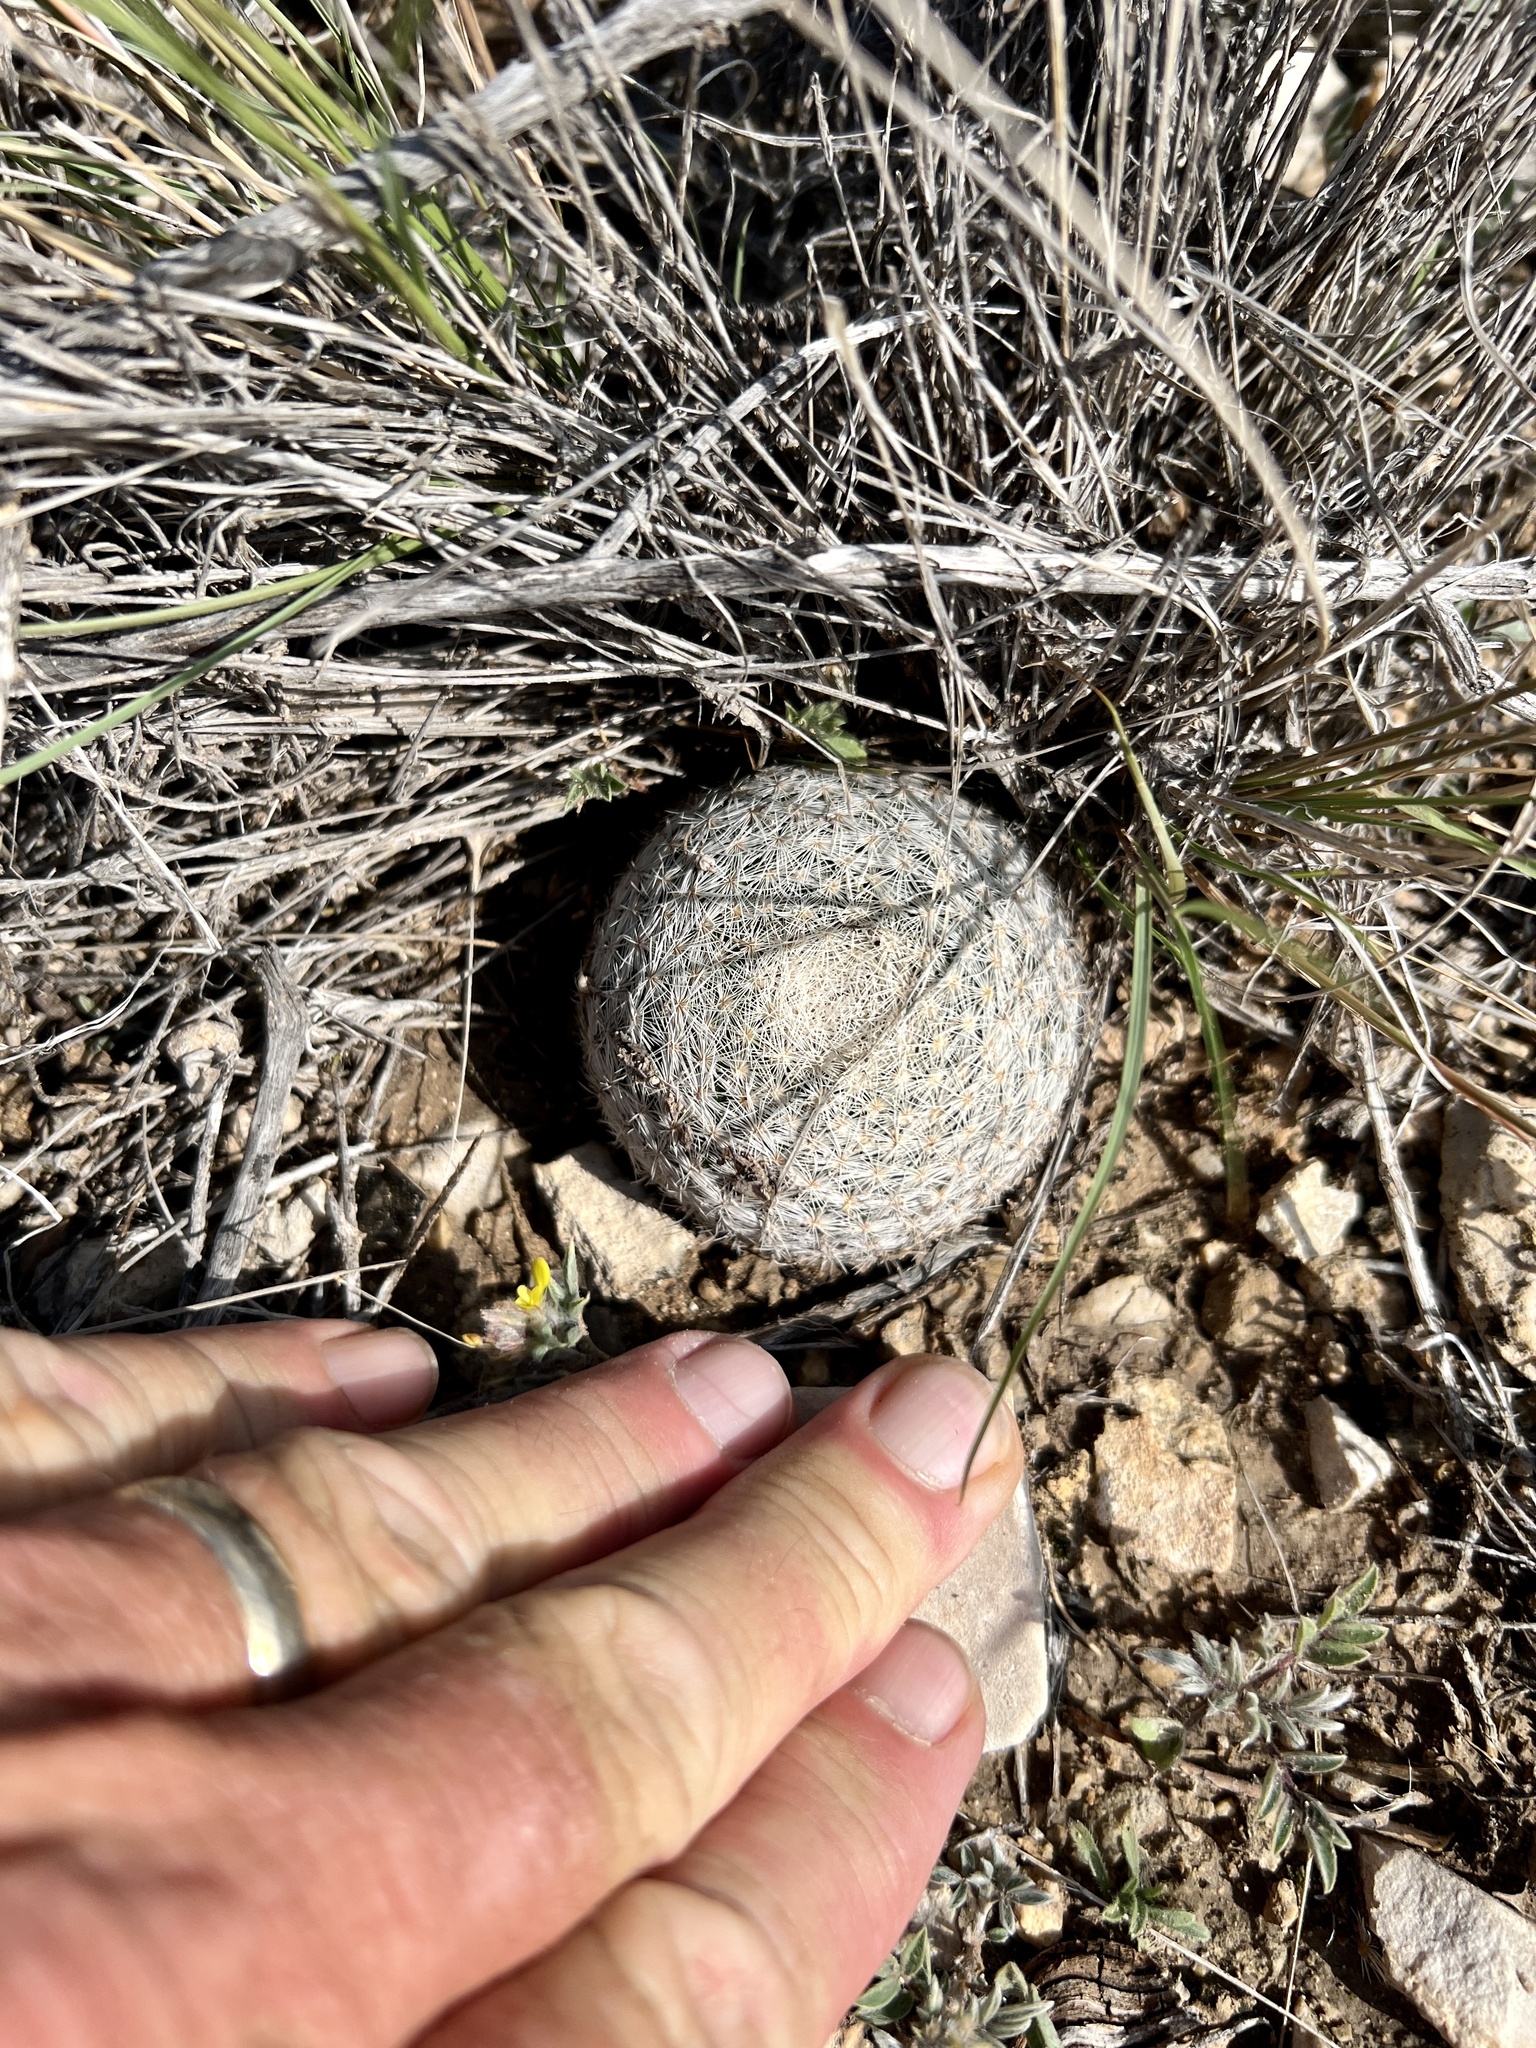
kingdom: Plantae
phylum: Tracheophyta
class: Magnoliopsida
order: Caryophyllales
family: Cactaceae
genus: Mammillaria
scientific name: Mammillaria lasiacantha
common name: Lace-spine nipple cactus
